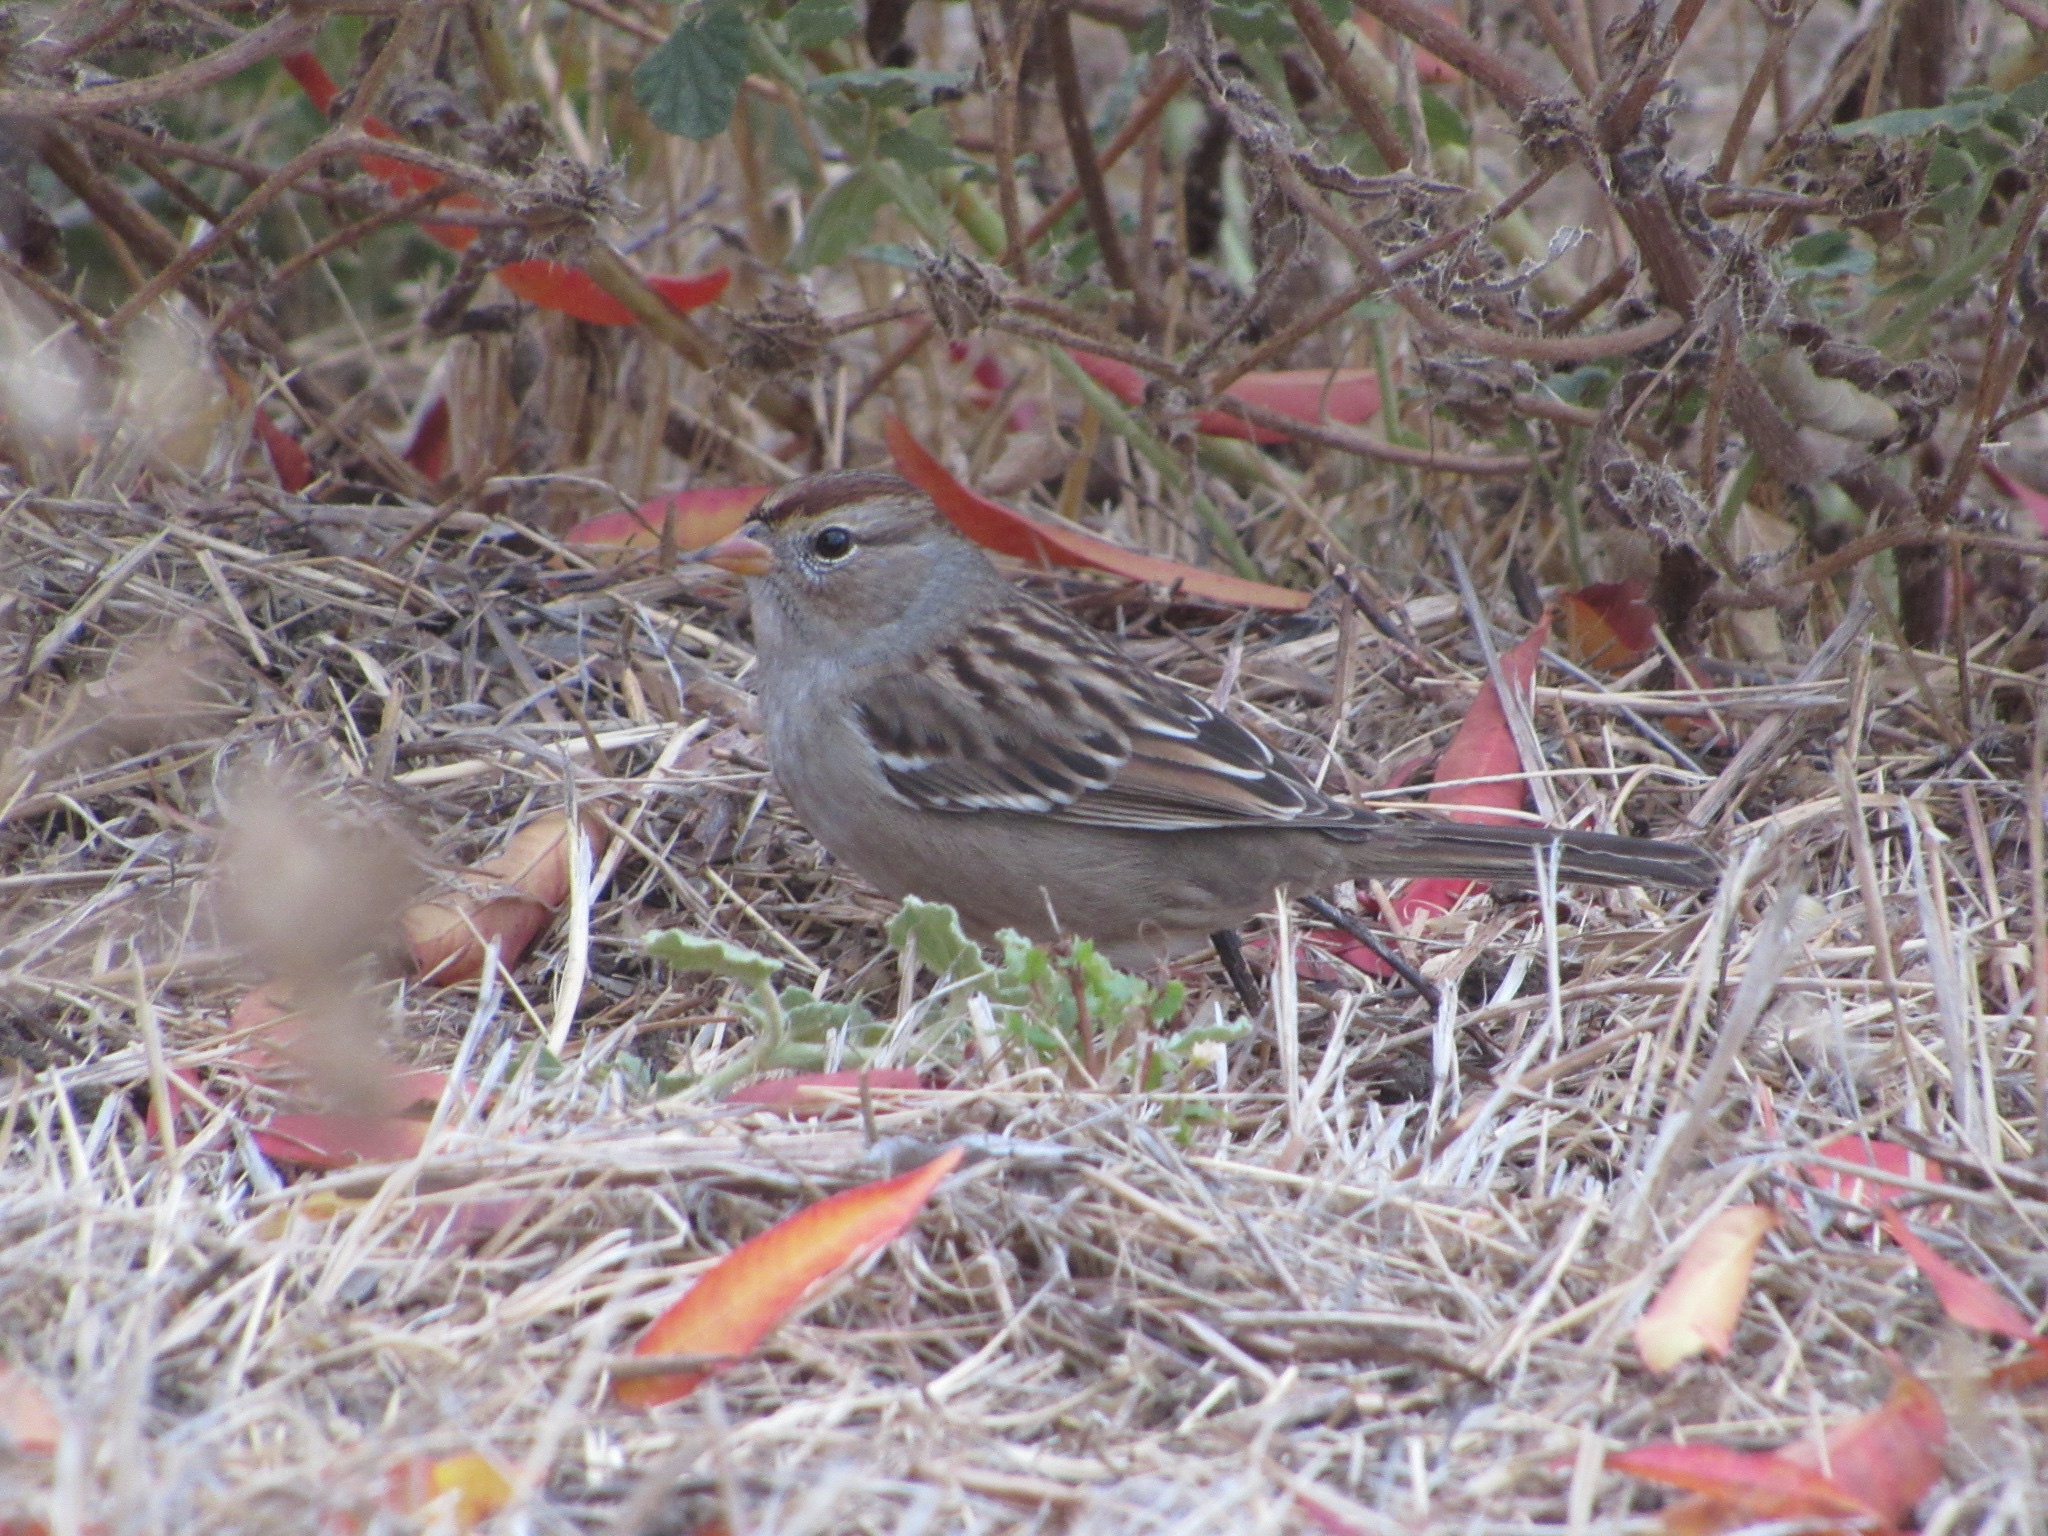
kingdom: Animalia
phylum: Chordata
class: Aves
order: Passeriformes
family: Passerellidae
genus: Zonotrichia
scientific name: Zonotrichia leucophrys
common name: White-crowned sparrow
